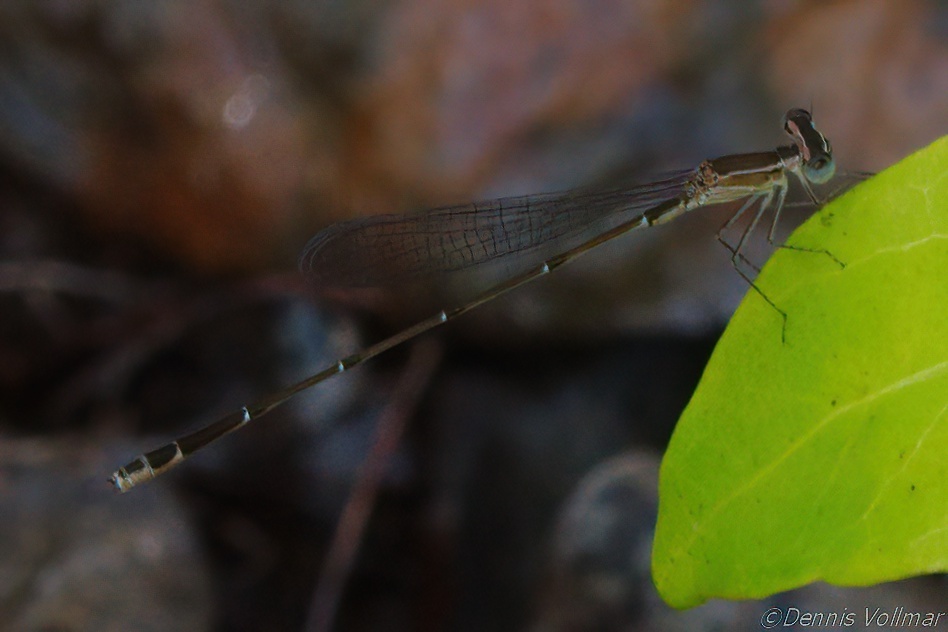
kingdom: Animalia
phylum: Arthropoda
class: Insecta
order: Odonata
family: Coenagrionidae
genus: Nehalennia
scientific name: Nehalennia pallidula
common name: Everglades sprite
